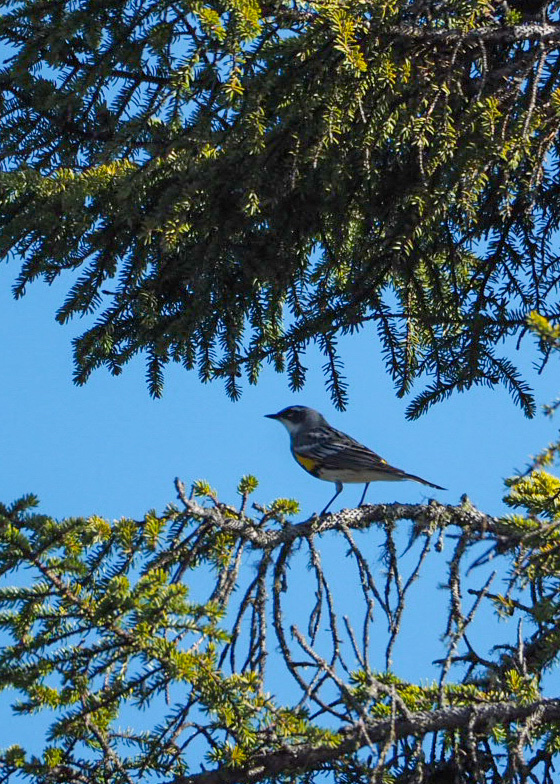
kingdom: Animalia
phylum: Chordata
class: Aves
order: Passeriformes
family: Parulidae
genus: Setophaga
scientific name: Setophaga coronata
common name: Myrtle warbler
